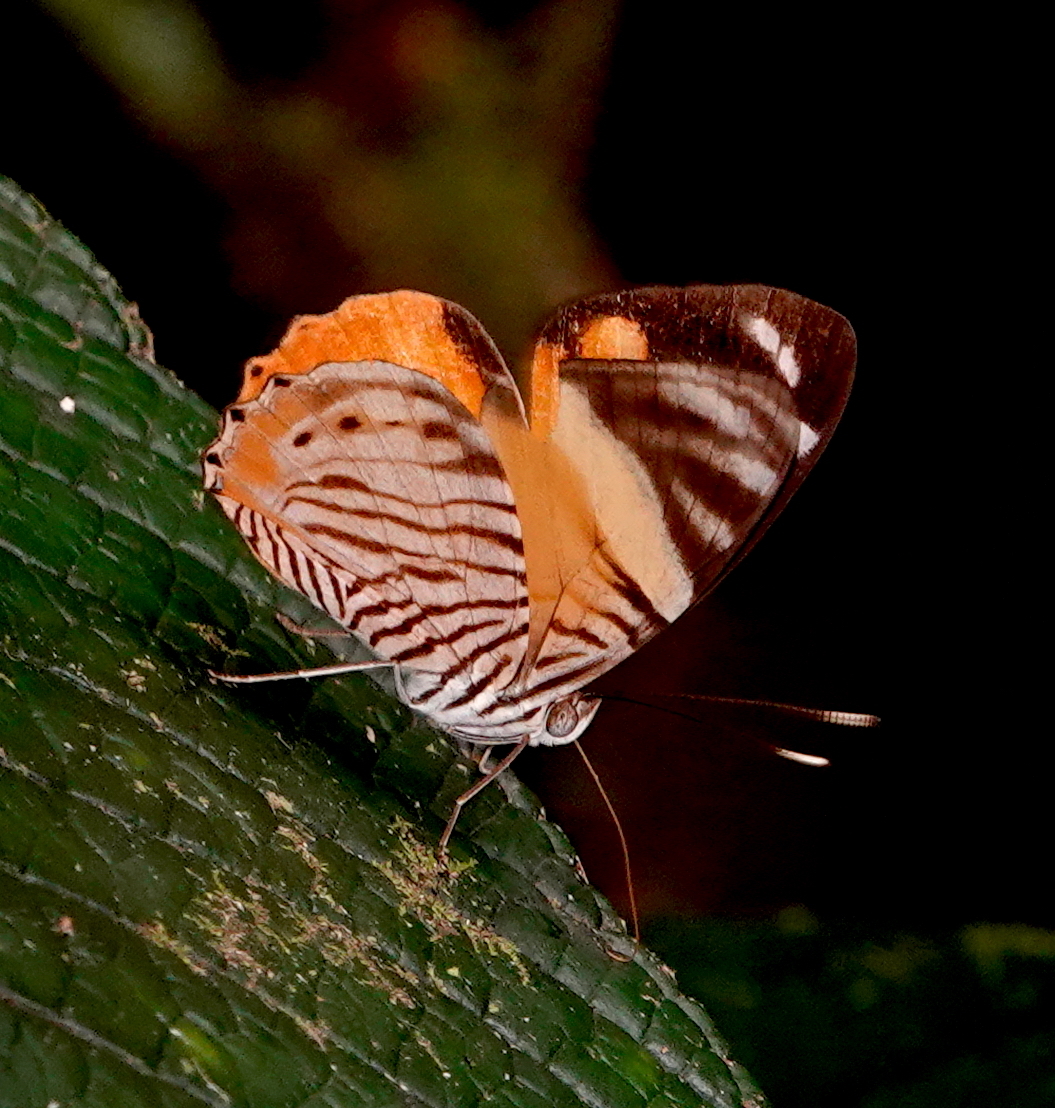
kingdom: Animalia
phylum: Arthropoda
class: Insecta
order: Lepidoptera
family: Nymphalidae
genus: Callizona
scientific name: Callizona acesta
